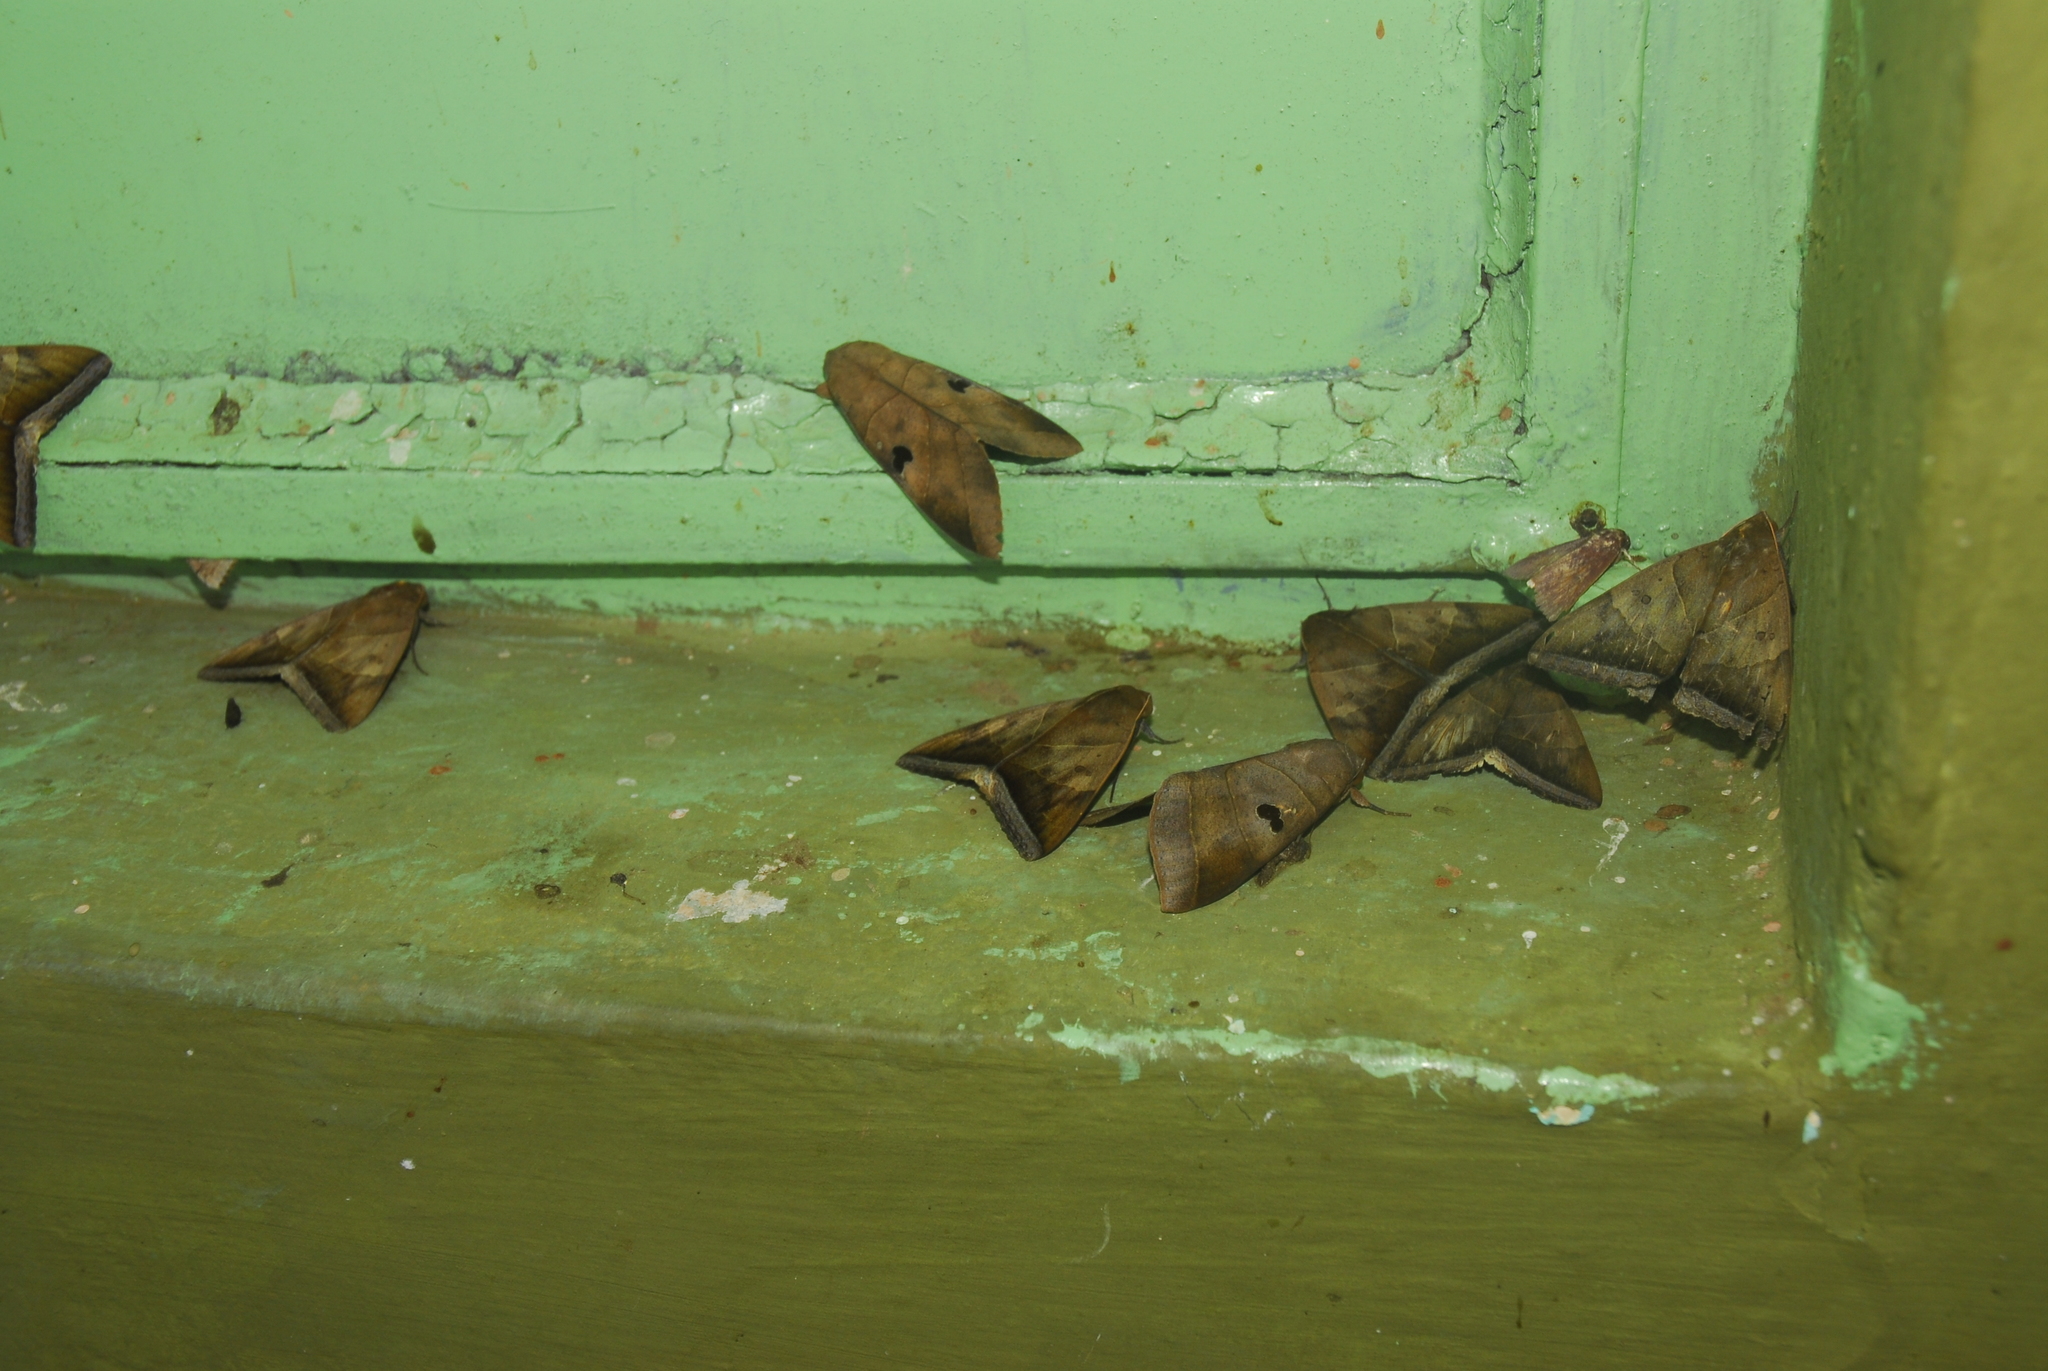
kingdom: Animalia
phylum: Arthropoda
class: Insecta
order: Lepidoptera
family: Erebidae
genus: Thyas
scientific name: Thyas coronata
